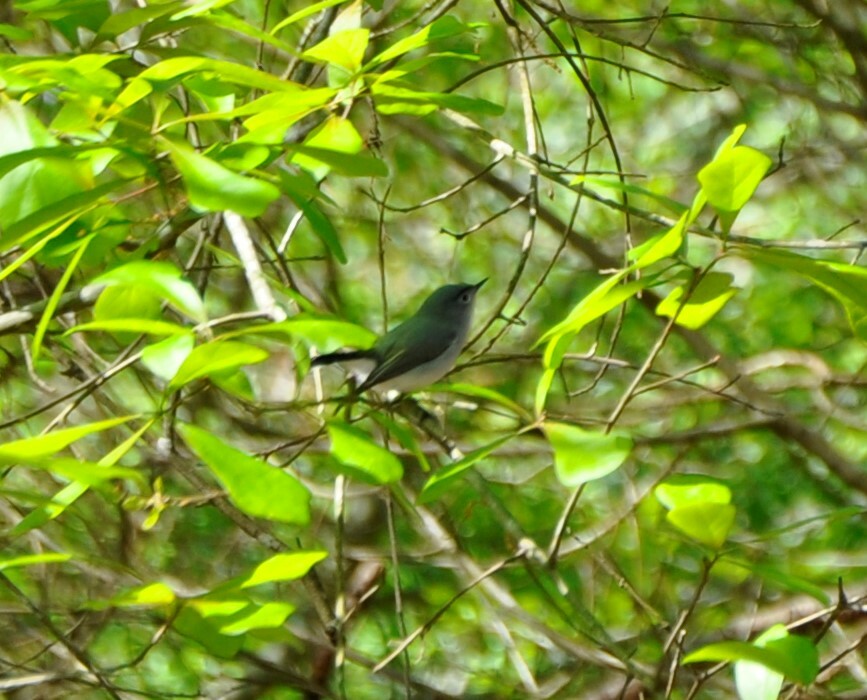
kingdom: Animalia
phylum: Chordata
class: Aves
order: Passeriformes
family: Polioptilidae
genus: Polioptila
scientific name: Polioptila caerulea
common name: Blue-gray gnatcatcher
